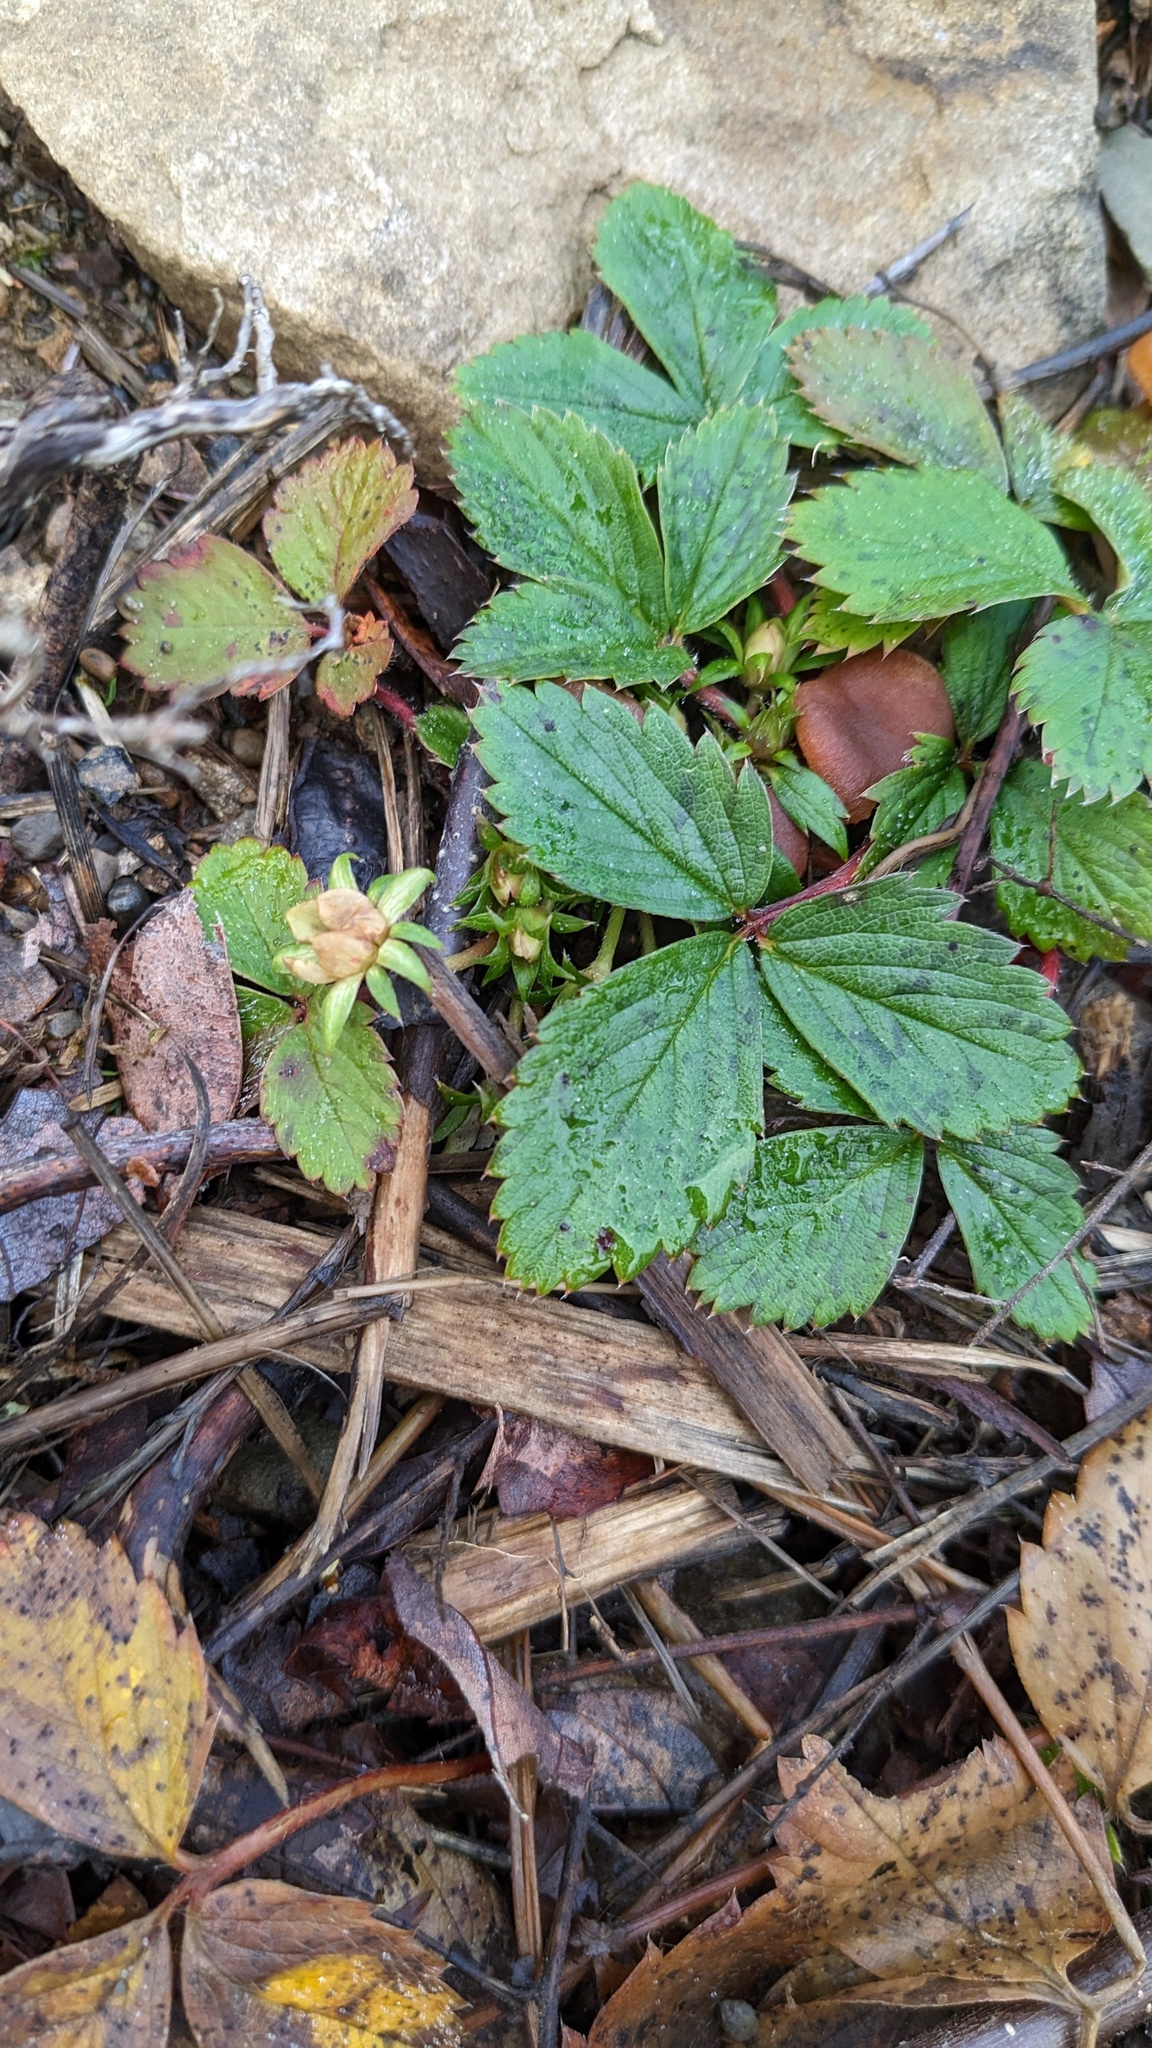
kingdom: Plantae
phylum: Tracheophyta
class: Magnoliopsida
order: Rosales
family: Rosaceae
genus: Fragaria
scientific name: Fragaria virginiana
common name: Thickleaved wild strawberry
